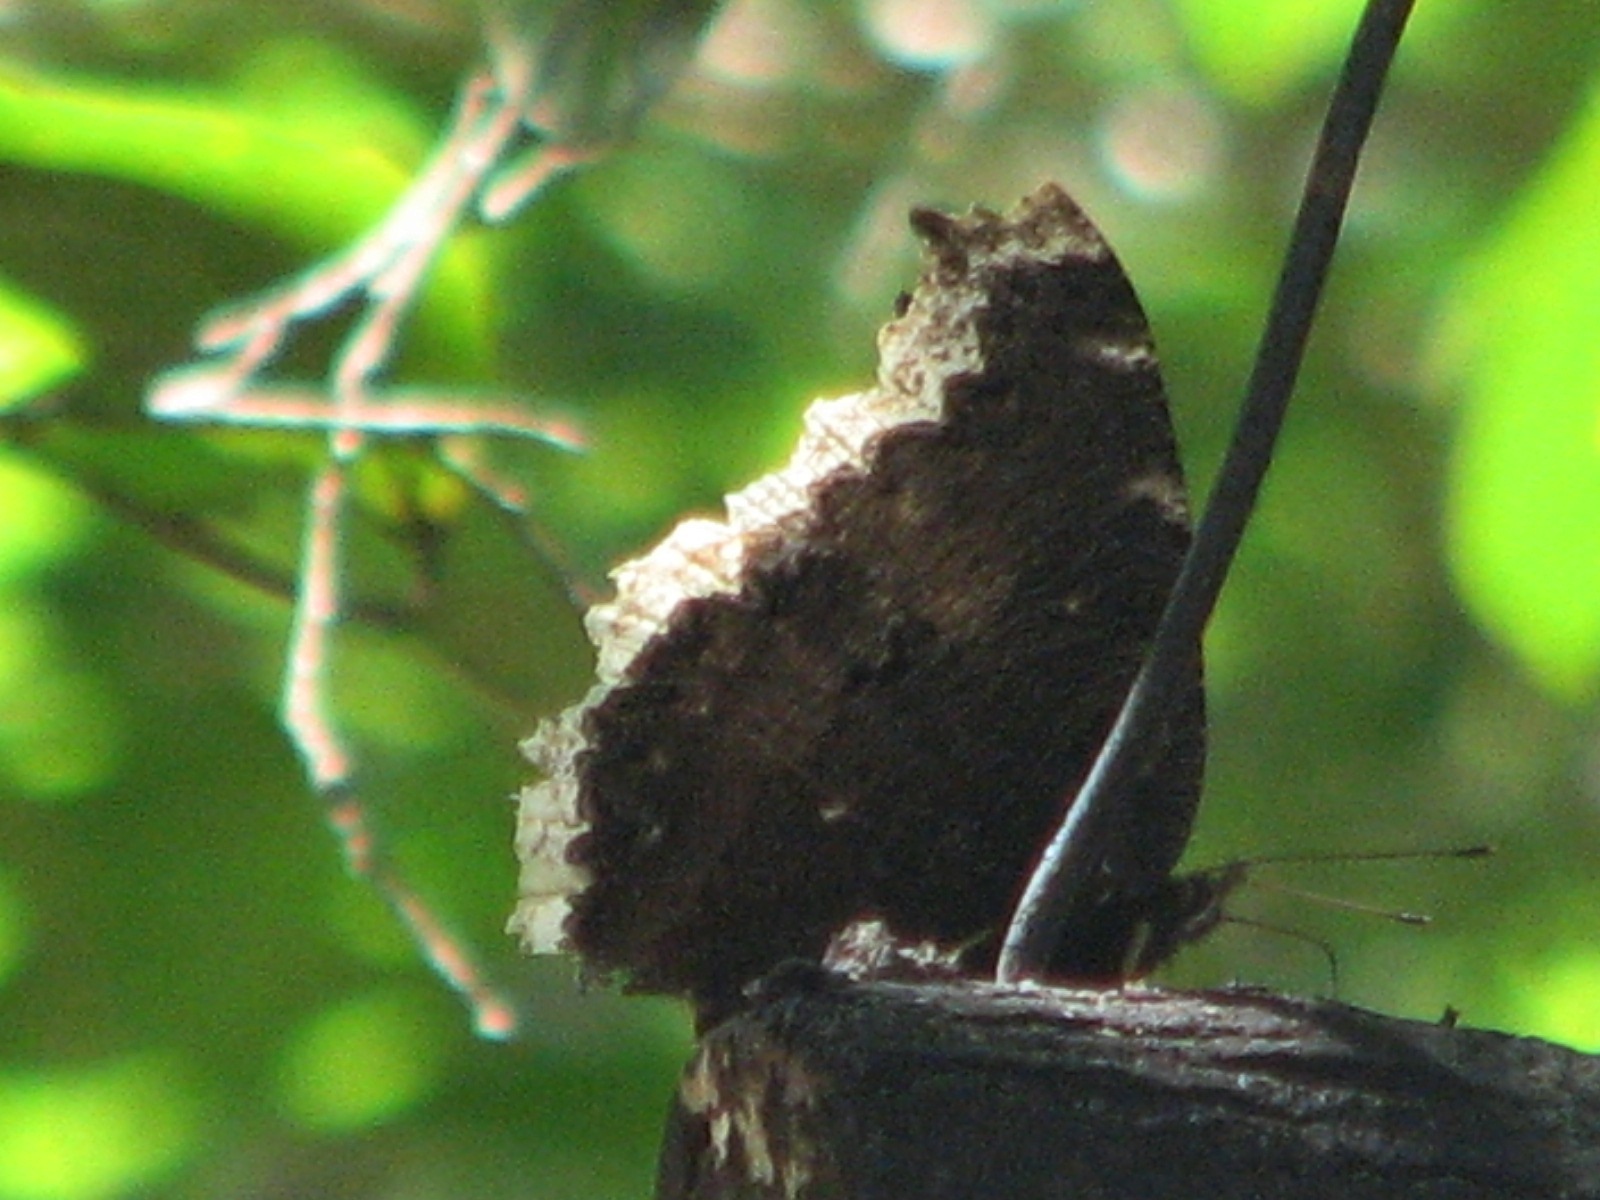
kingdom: Animalia
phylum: Arthropoda
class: Insecta
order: Lepidoptera
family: Nymphalidae
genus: Nymphalis
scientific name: Nymphalis antiopa
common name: Camberwell beauty
